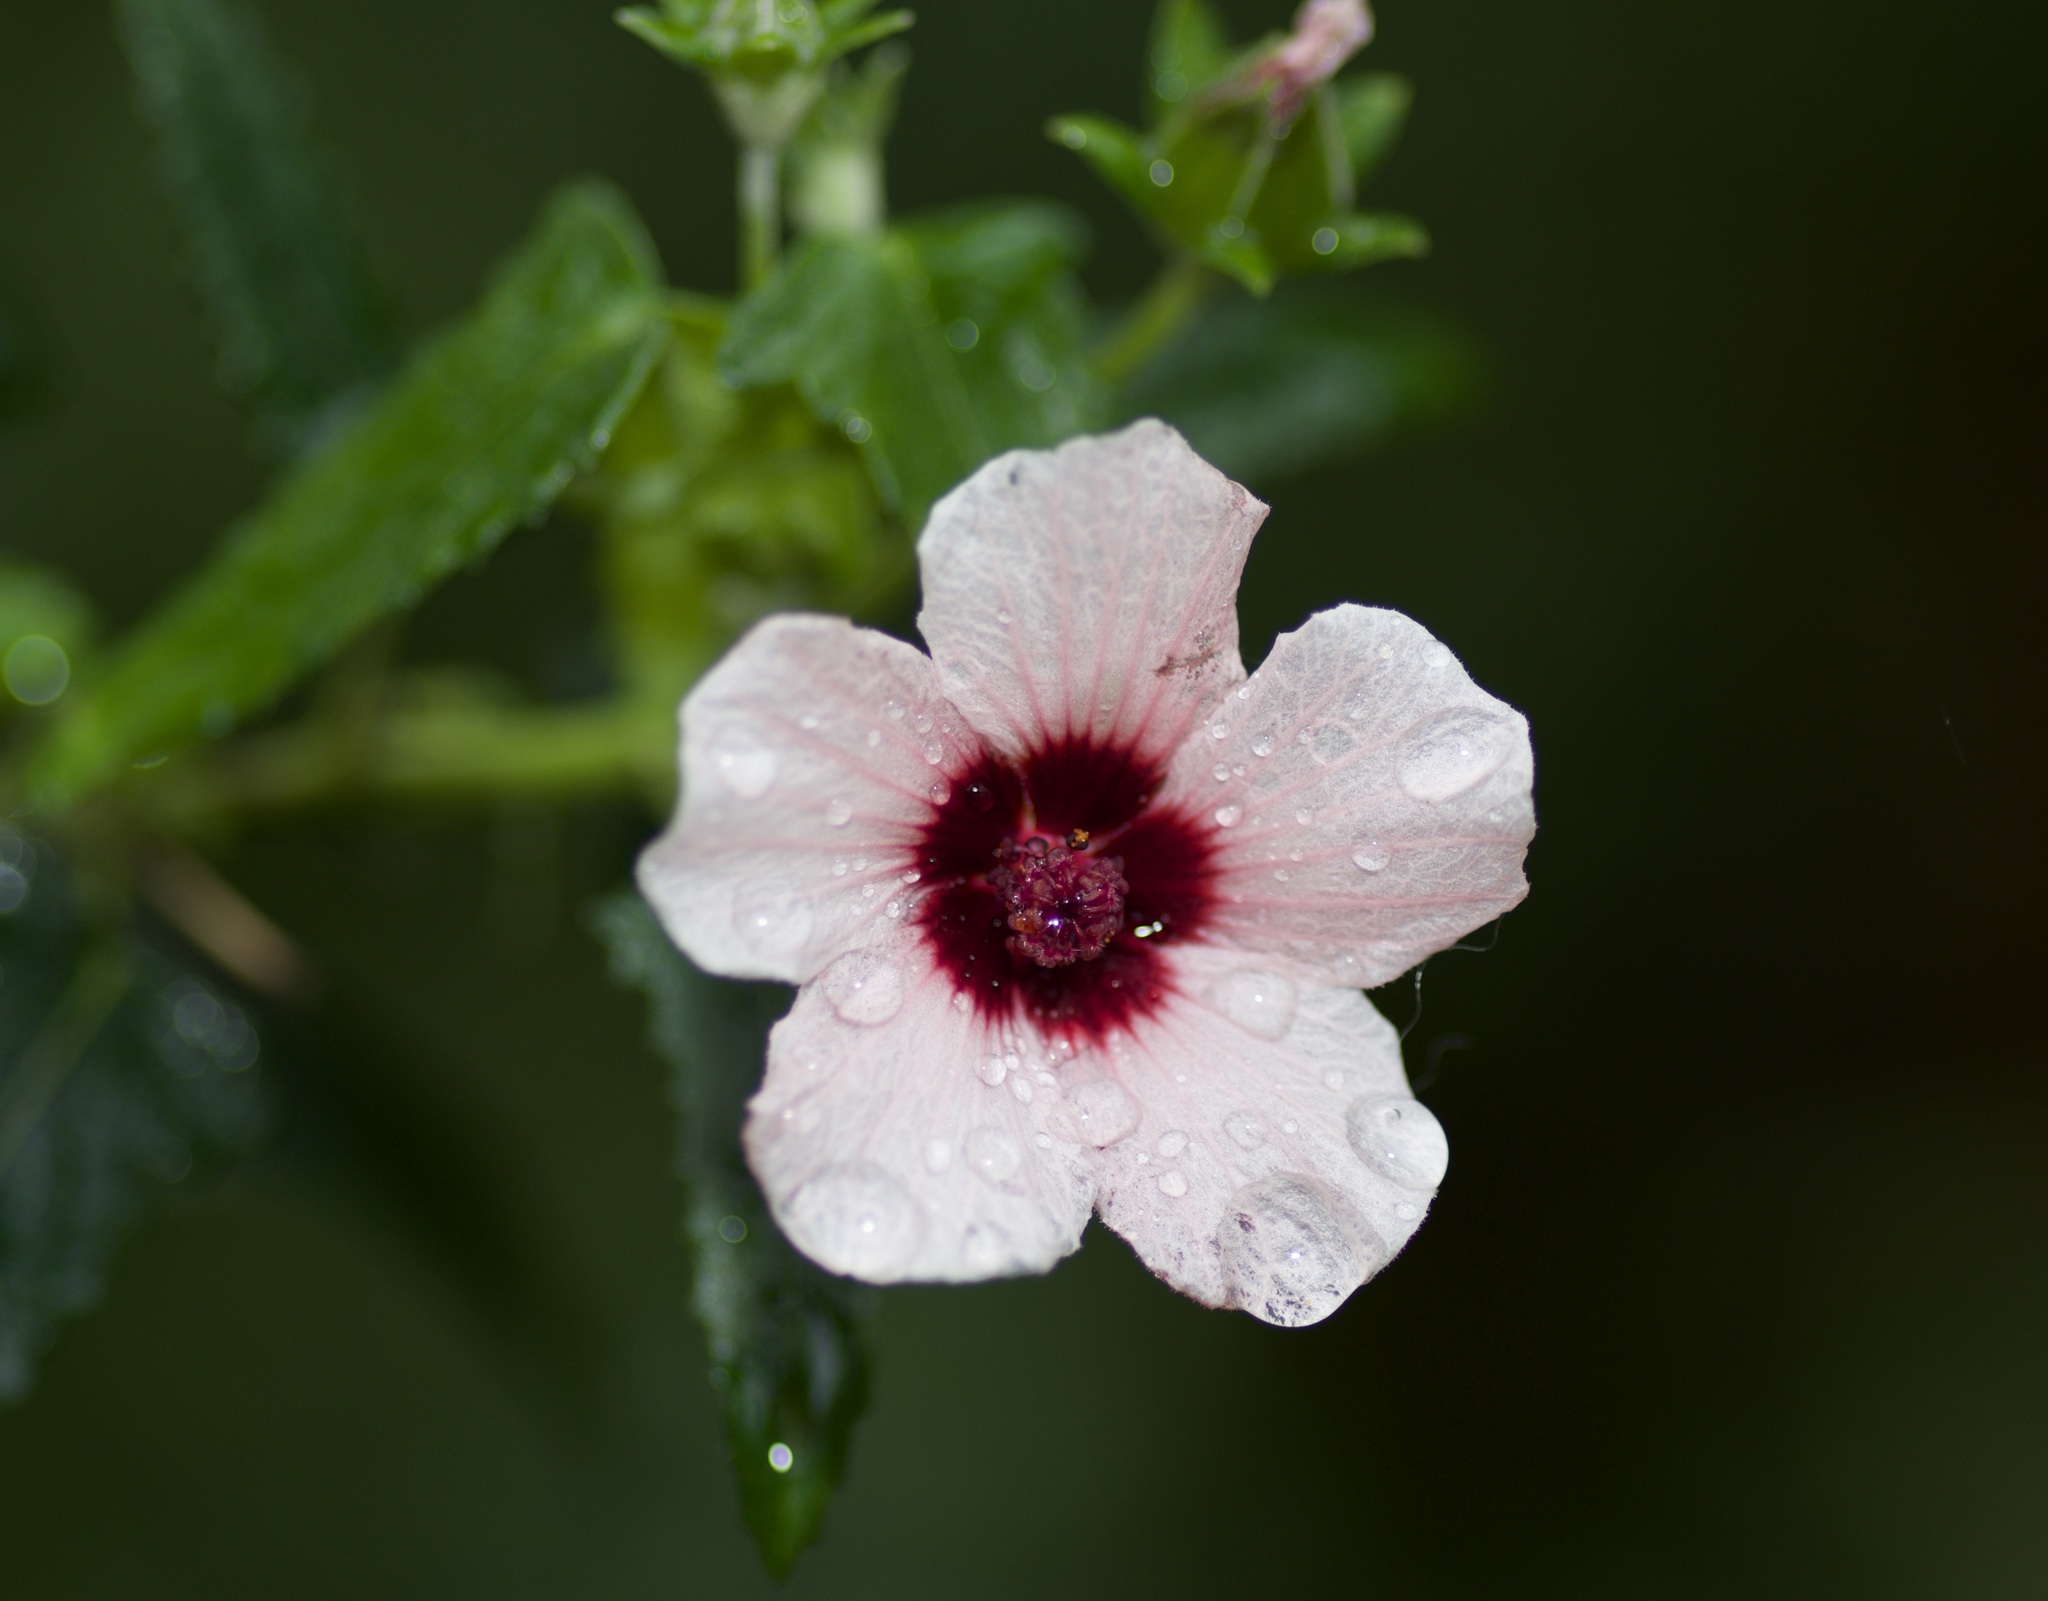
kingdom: Plantae
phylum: Tracheophyta
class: Magnoliopsida
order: Malvales
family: Malvaceae
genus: Pavonia
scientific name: Pavonia hastata
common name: Spearleaf swampmallow
